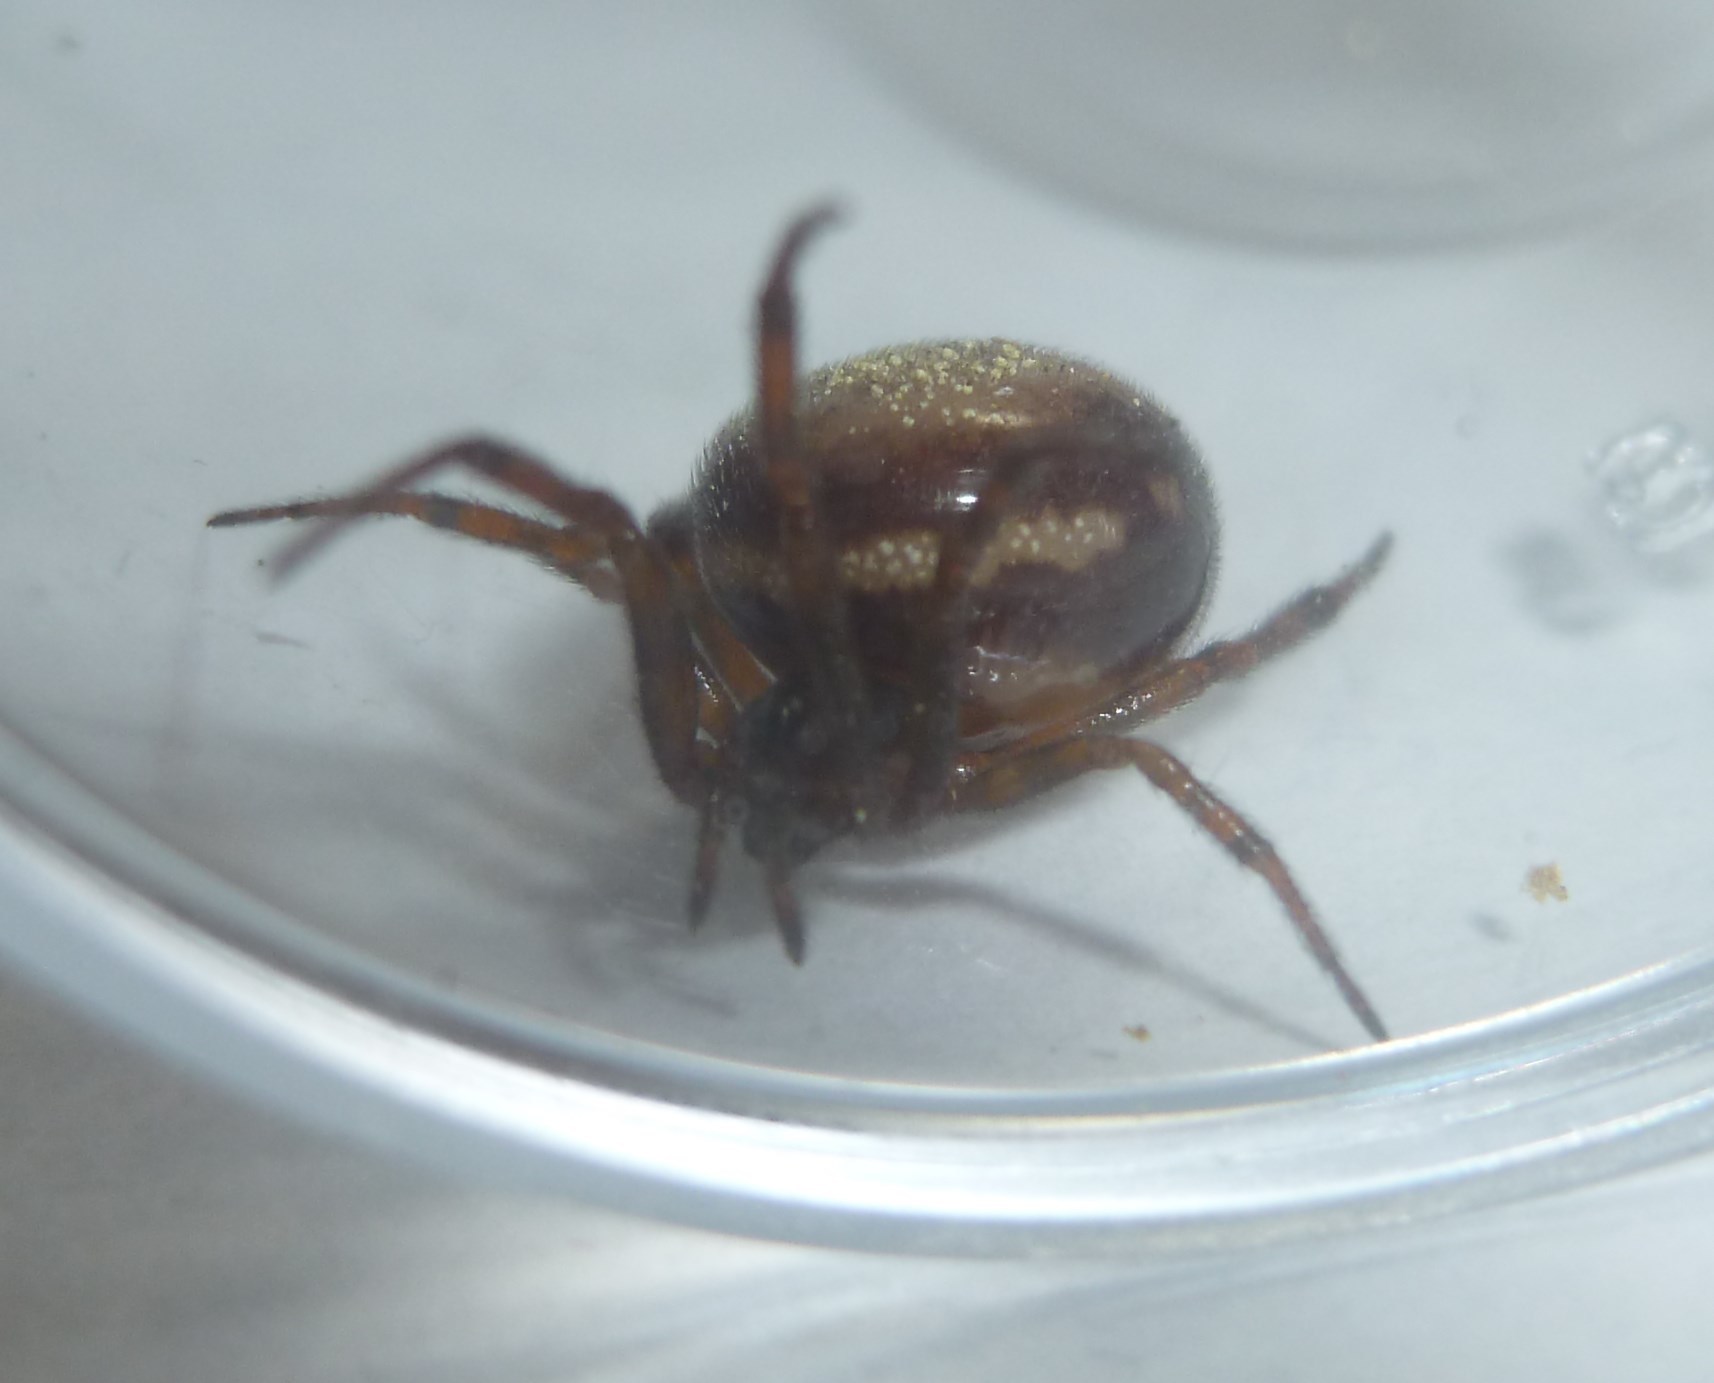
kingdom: Animalia
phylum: Arthropoda
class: Arachnida
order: Araneae
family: Theridiidae
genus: Steatoda
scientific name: Steatoda bipunctata
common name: False widow
